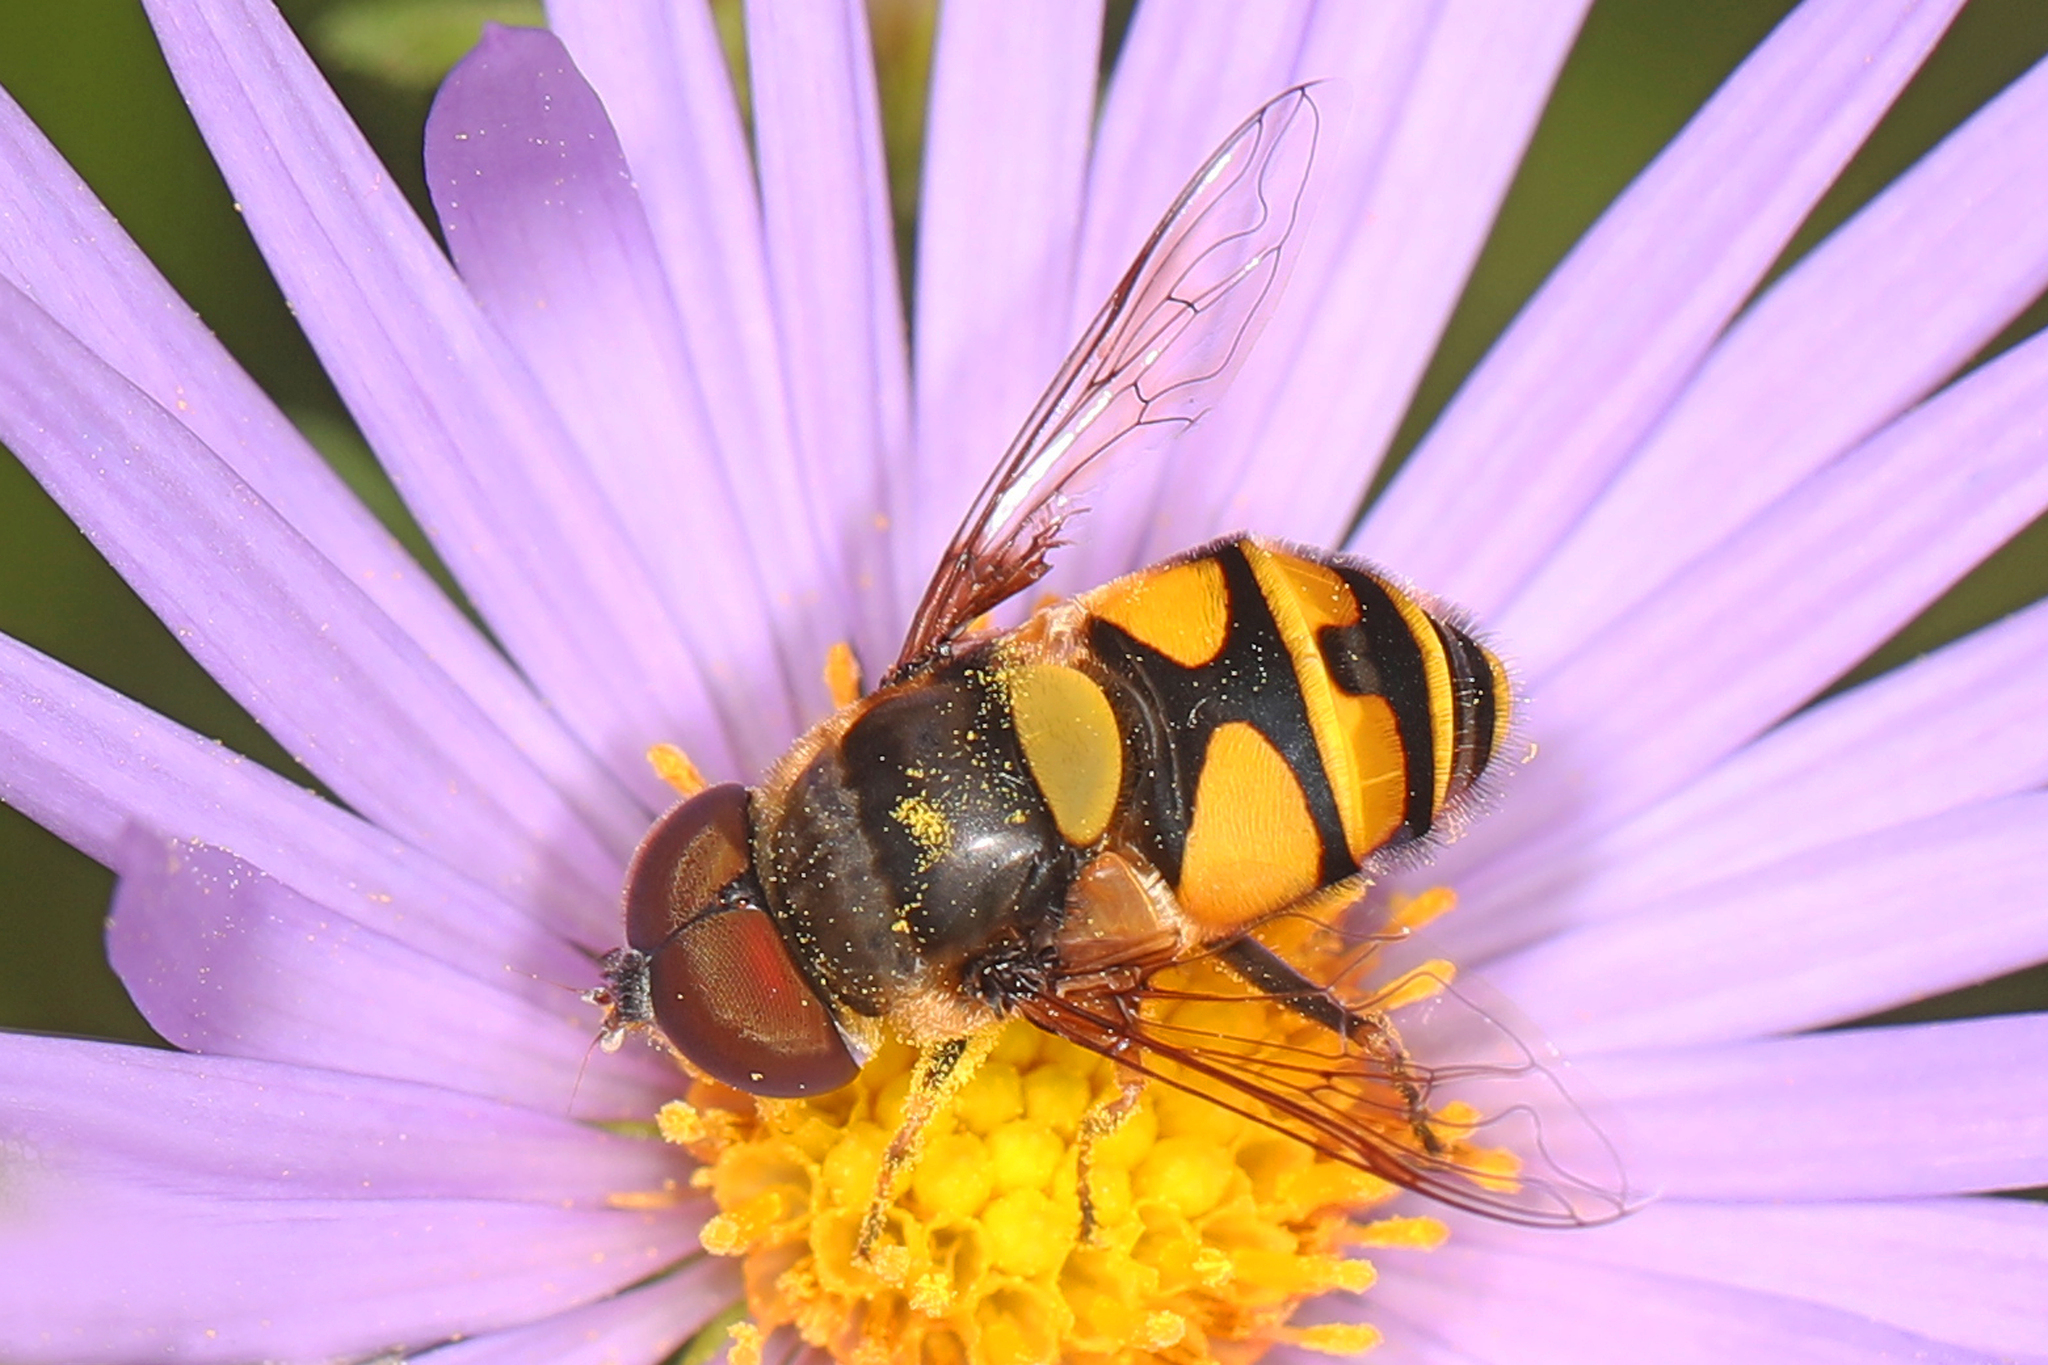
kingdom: Animalia
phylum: Arthropoda
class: Insecta
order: Diptera
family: Syrphidae
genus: Eristalis
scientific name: Eristalis transversa
